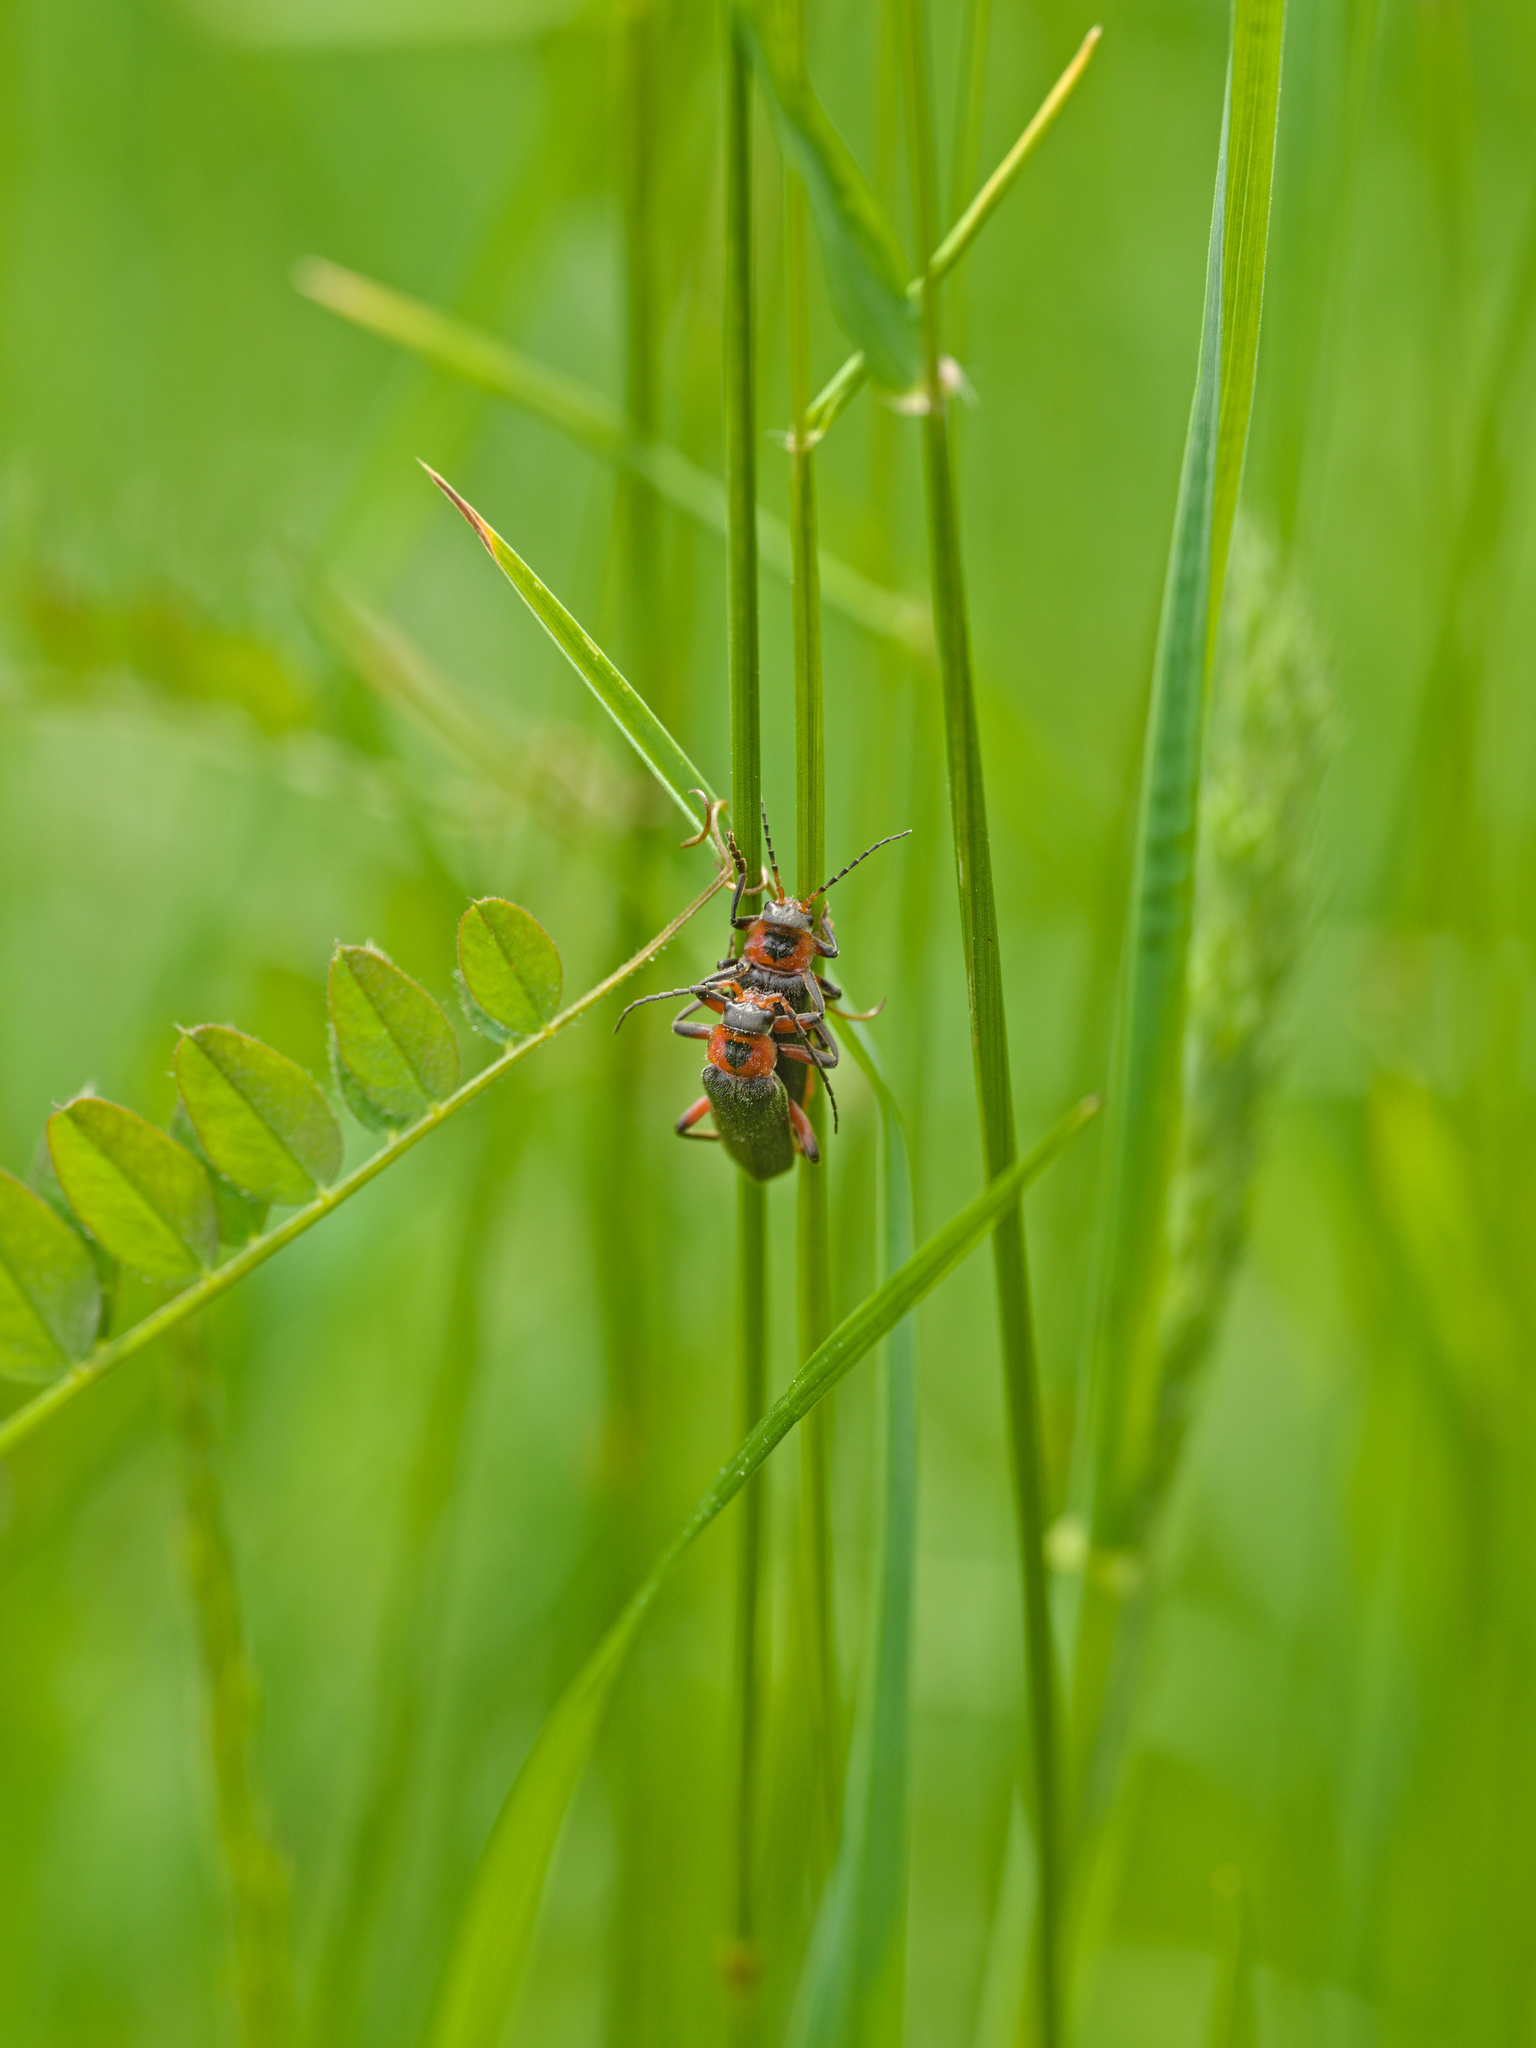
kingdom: Animalia
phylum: Arthropoda
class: Insecta
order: Coleoptera
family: Cantharidae
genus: Cantharis
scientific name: Cantharis rustica
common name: Soldier beetle
